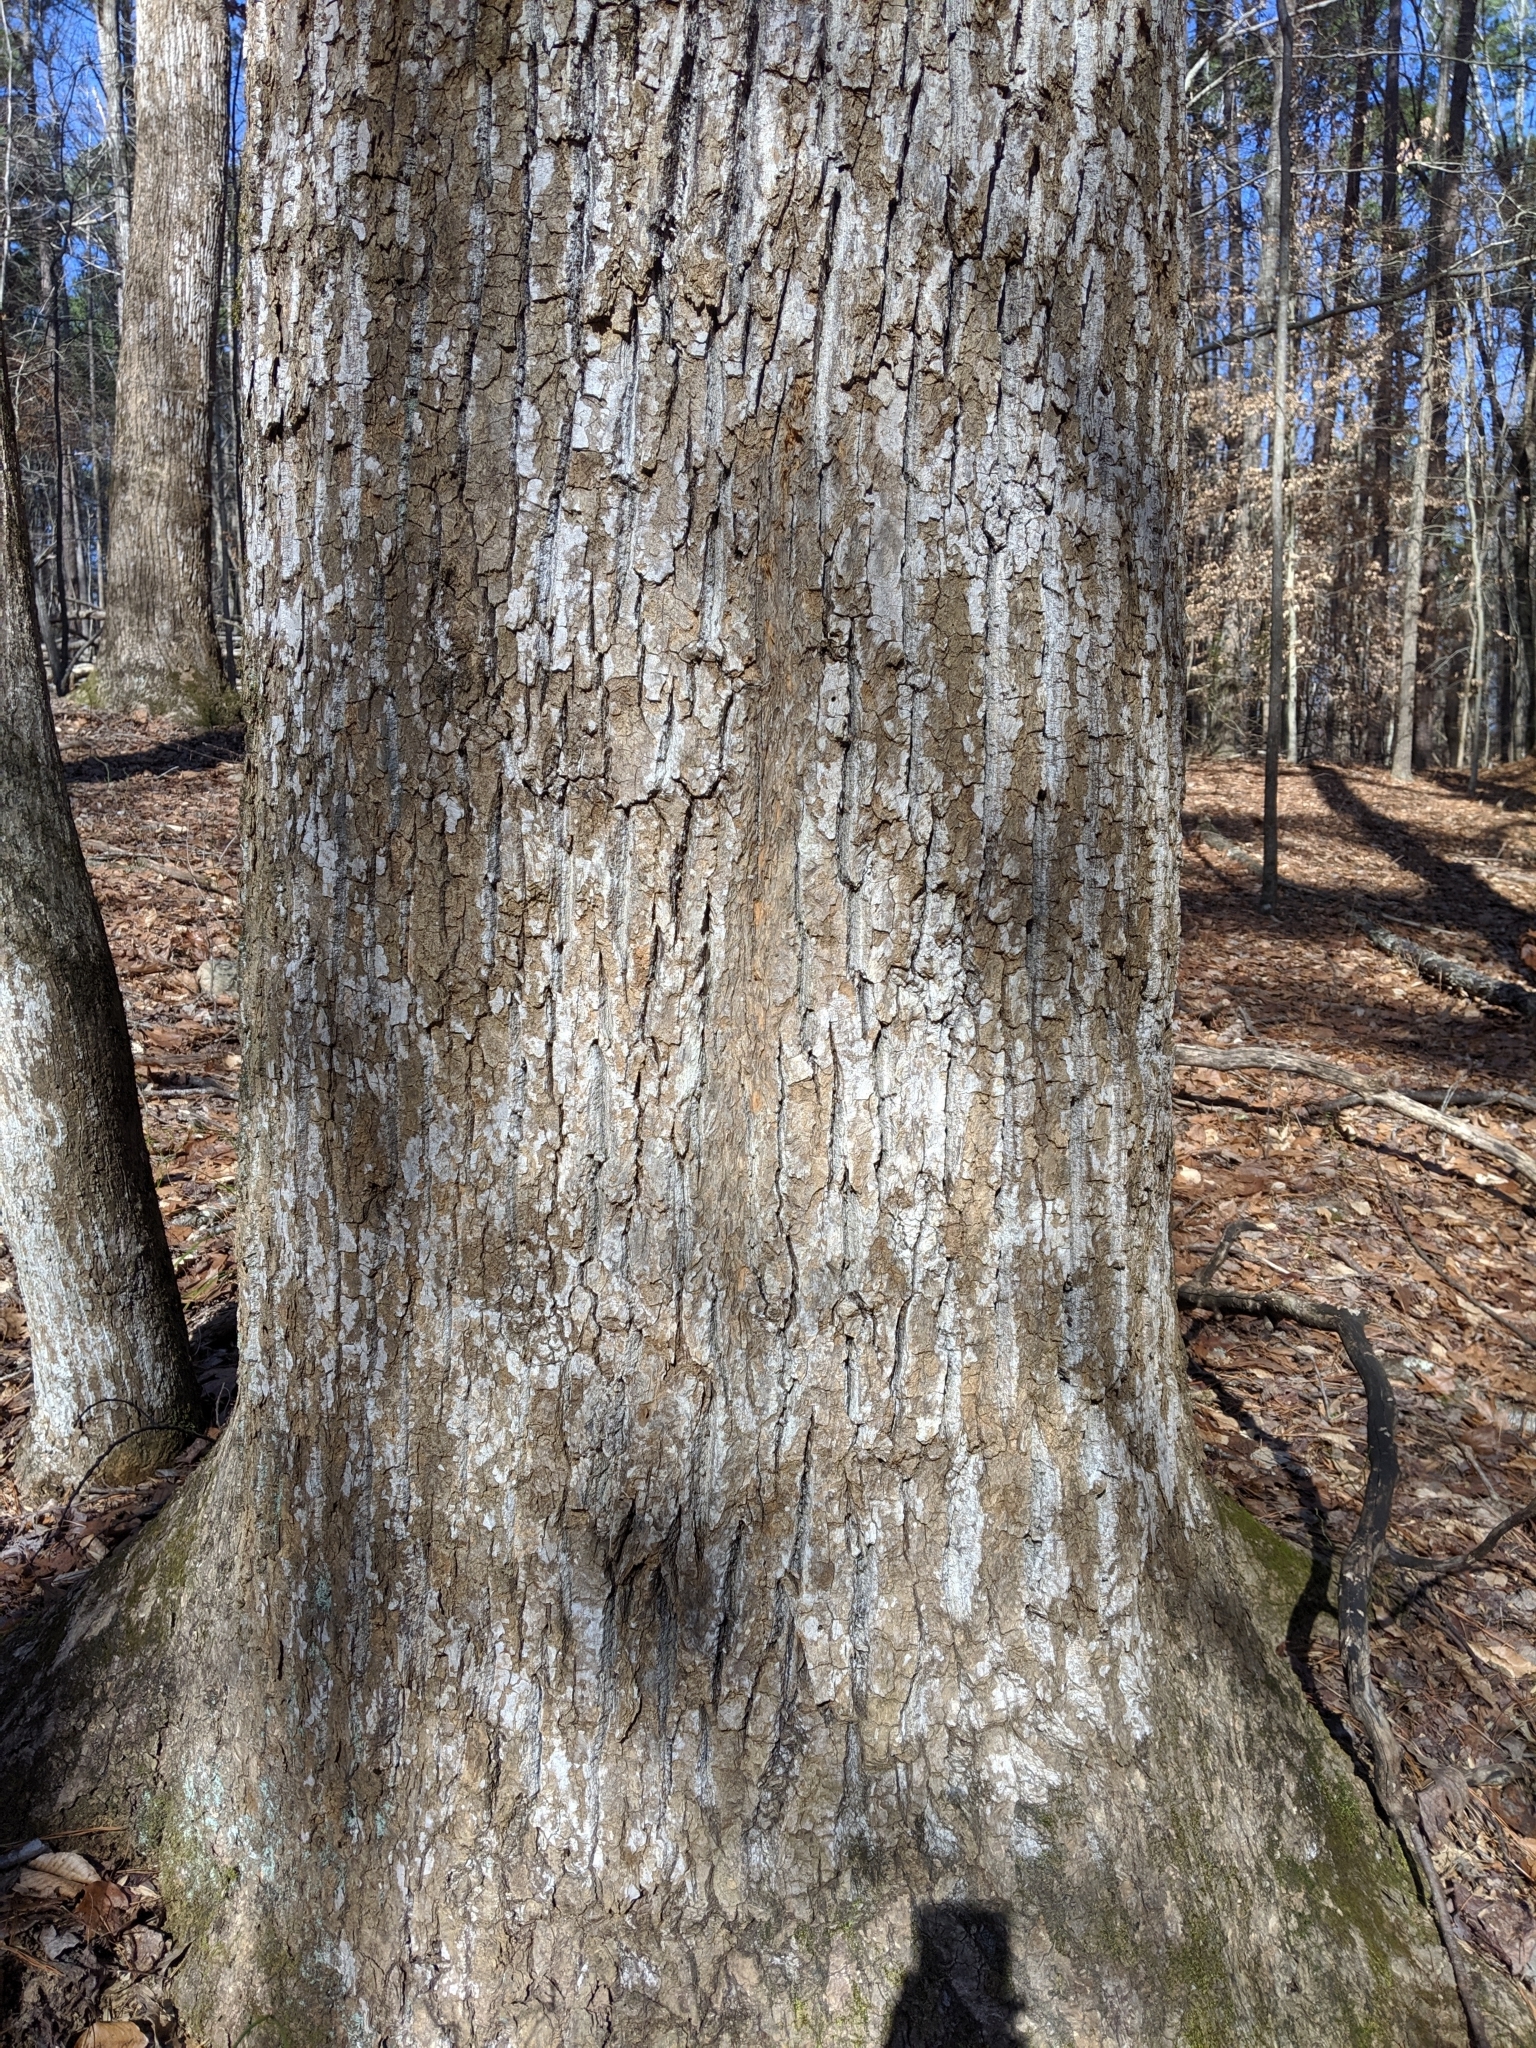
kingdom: Plantae
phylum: Tracheophyta
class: Magnoliopsida
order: Magnoliales
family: Magnoliaceae
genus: Liriodendron
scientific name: Liriodendron tulipifera
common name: Tulip tree
